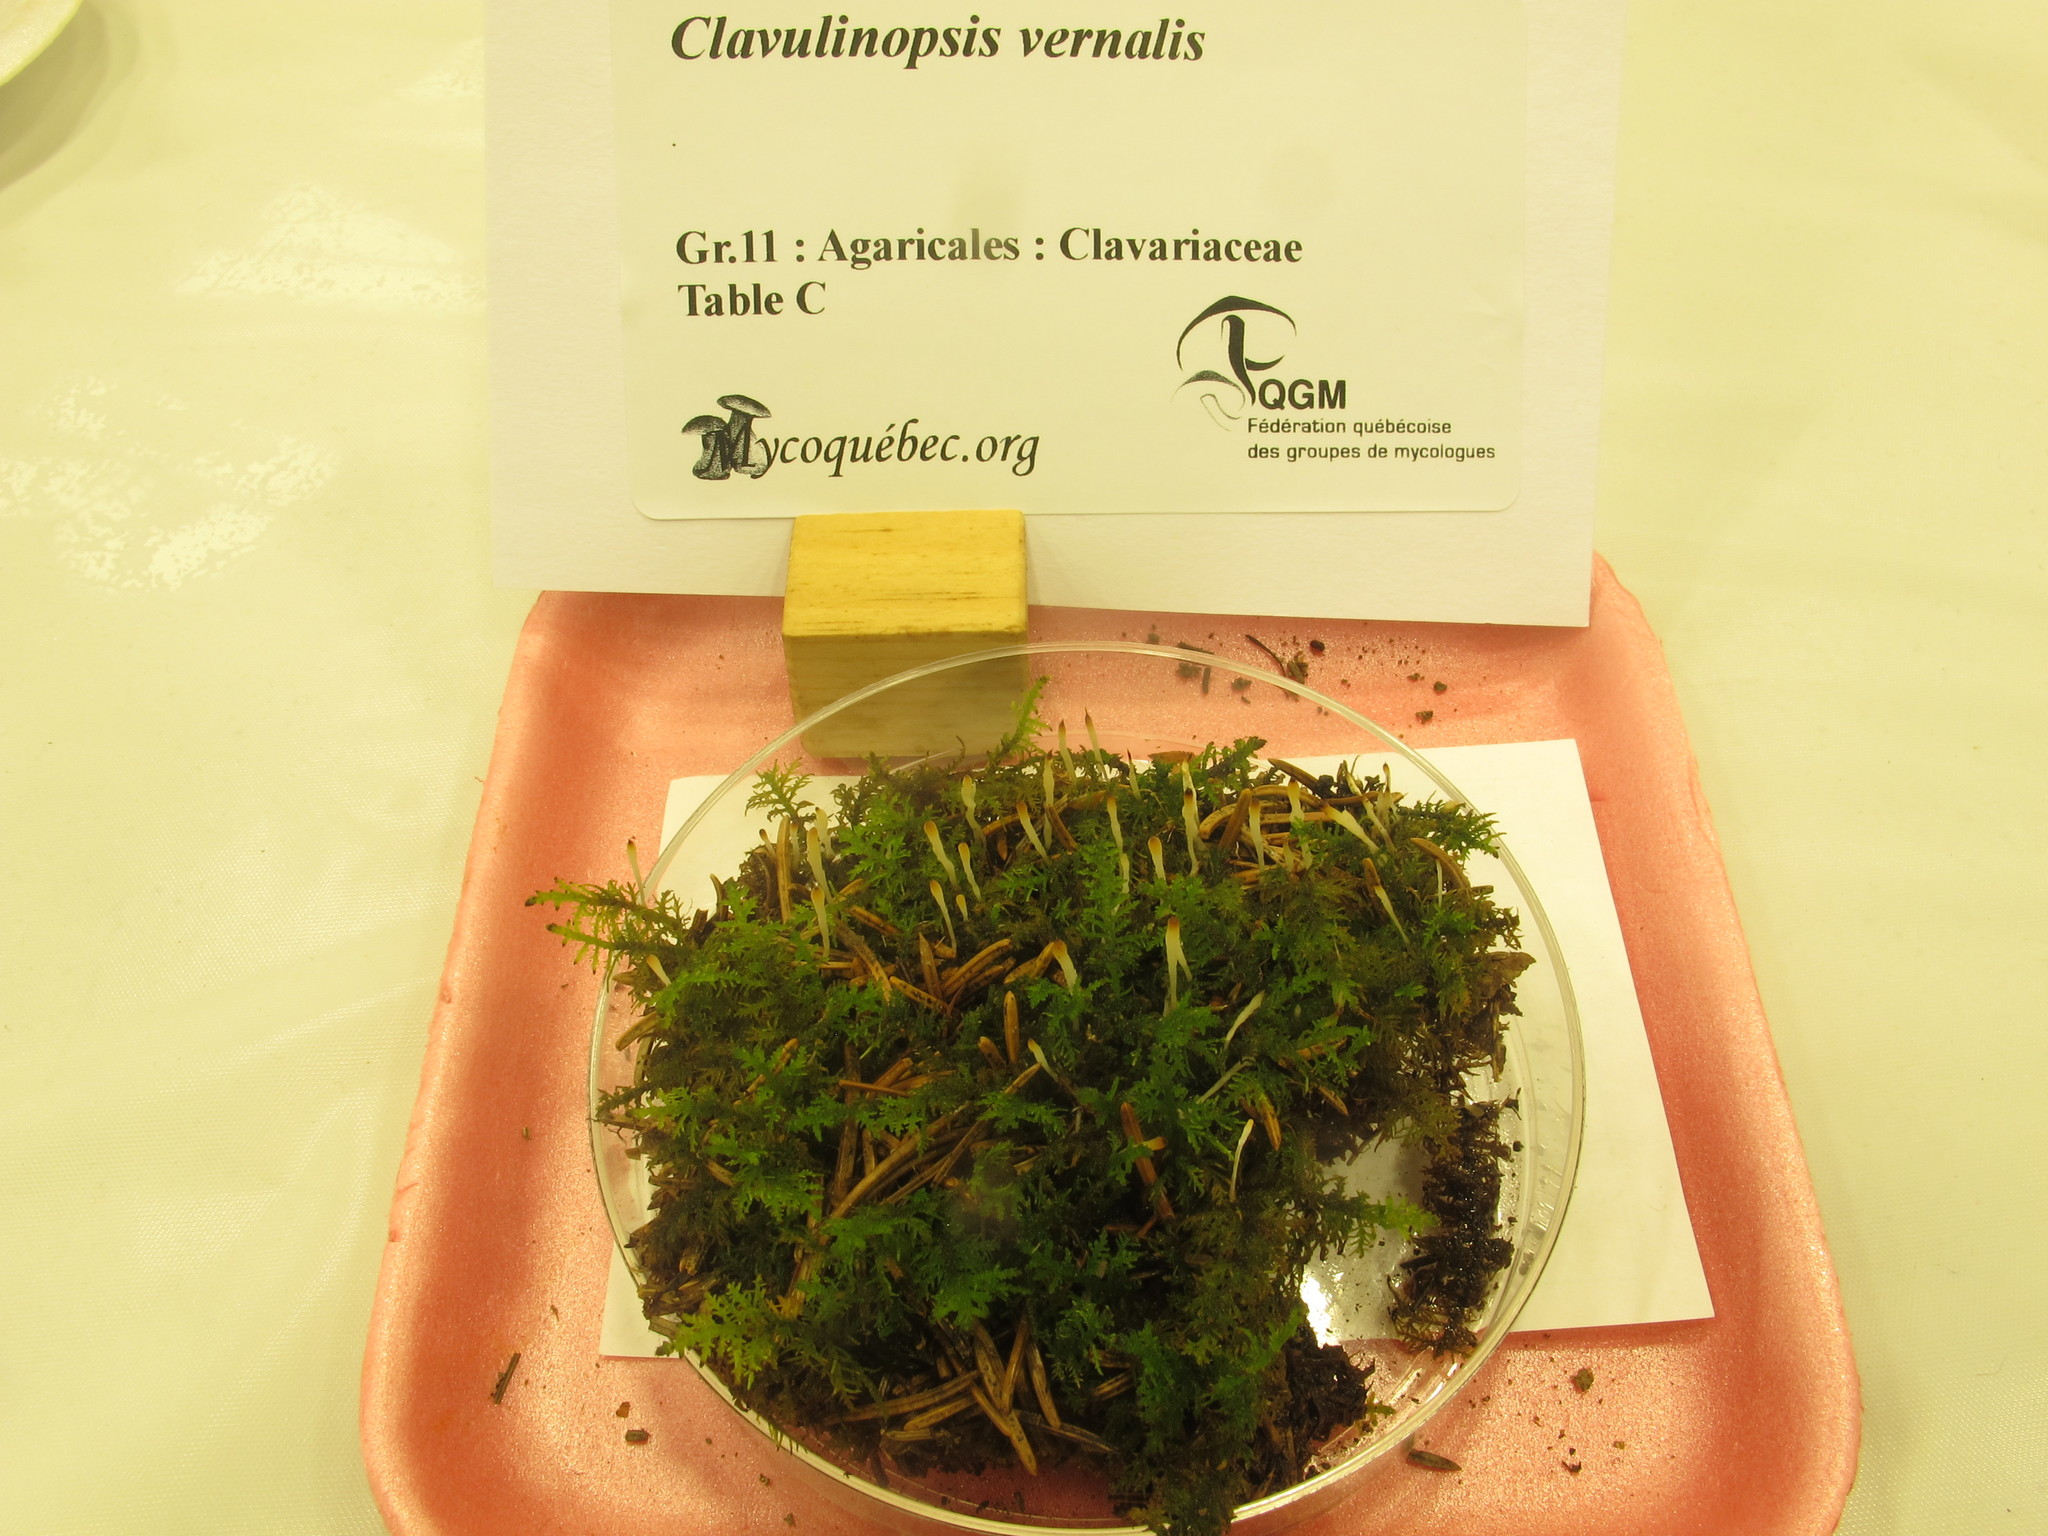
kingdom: Fungi
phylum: Basidiomycota
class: Pucciniomycetes
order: Platygloeales
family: Eocronartiaceae
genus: Eocronartium
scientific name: Eocronartium muscicola
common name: Moss rust
